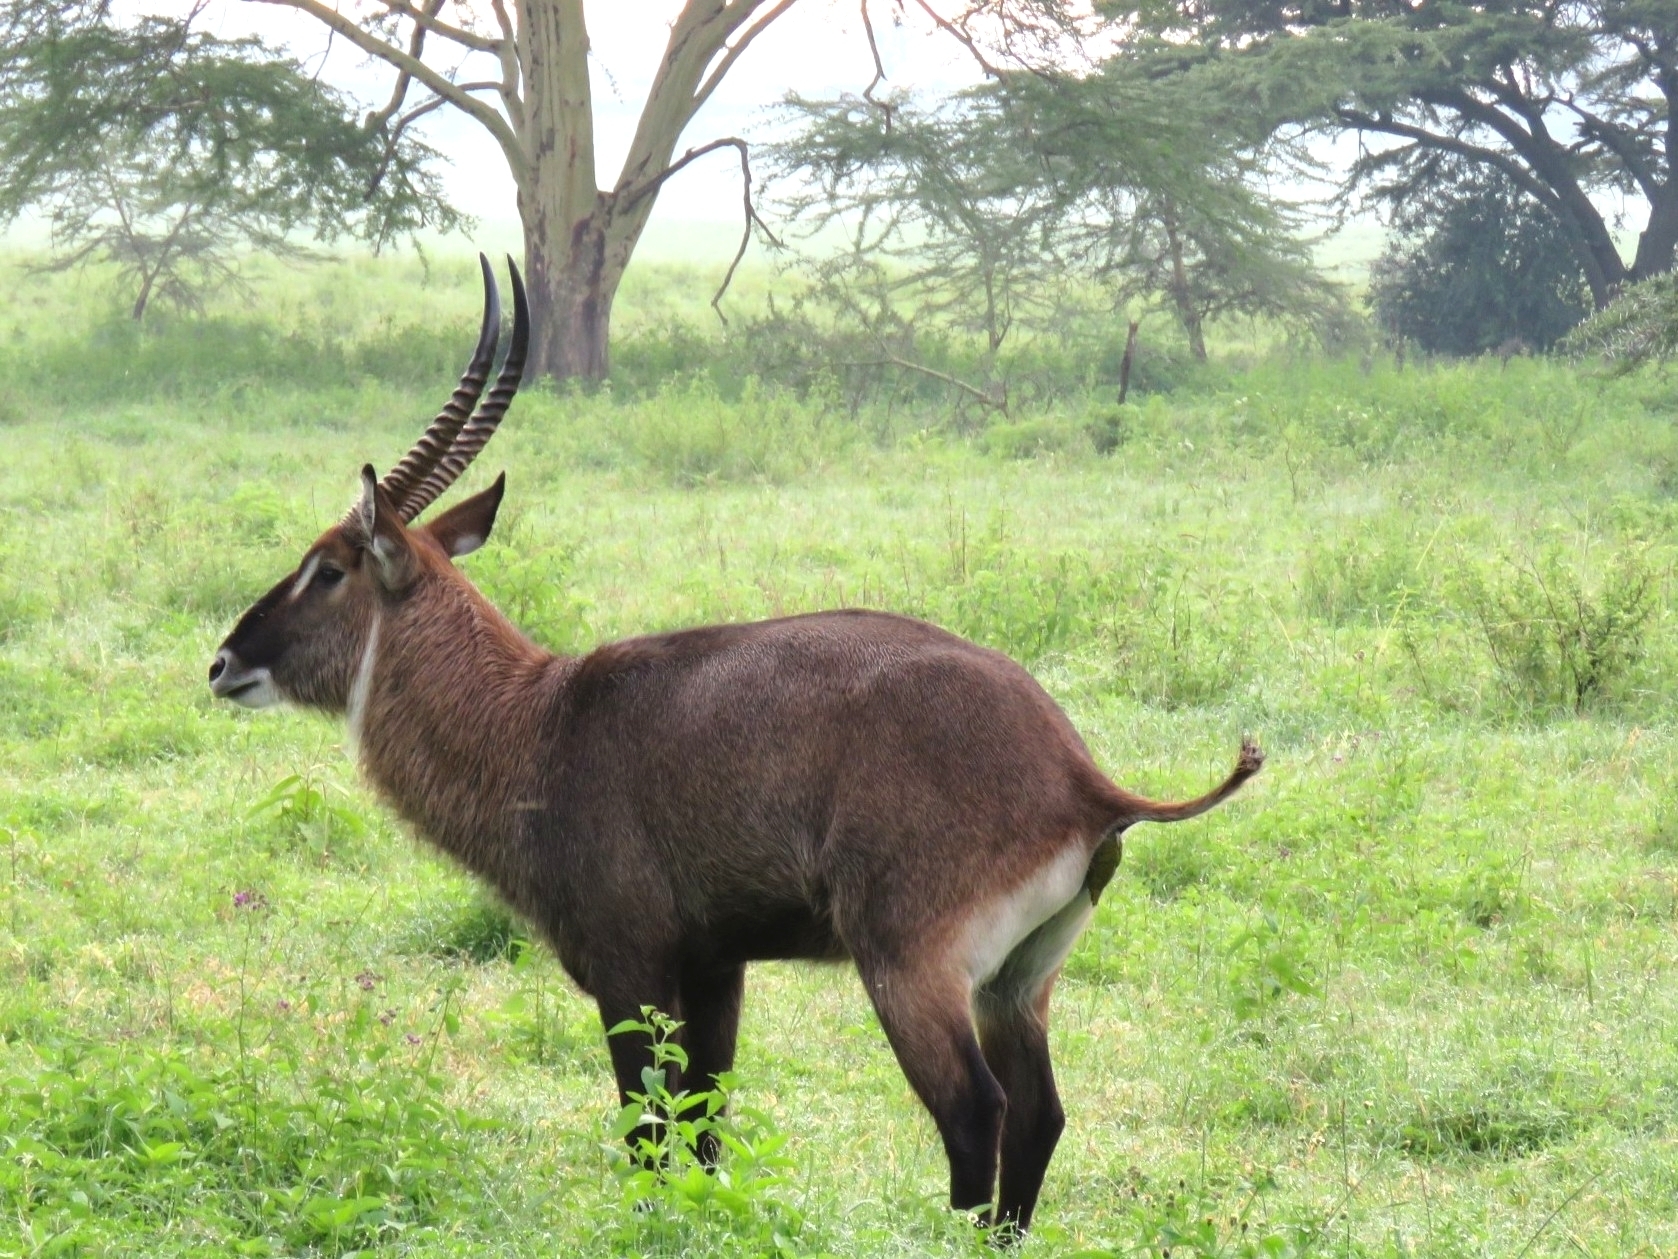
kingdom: Animalia
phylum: Chordata
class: Mammalia
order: Artiodactyla
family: Bovidae
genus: Kobus
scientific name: Kobus ellipsiprymnus
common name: Waterbuck
